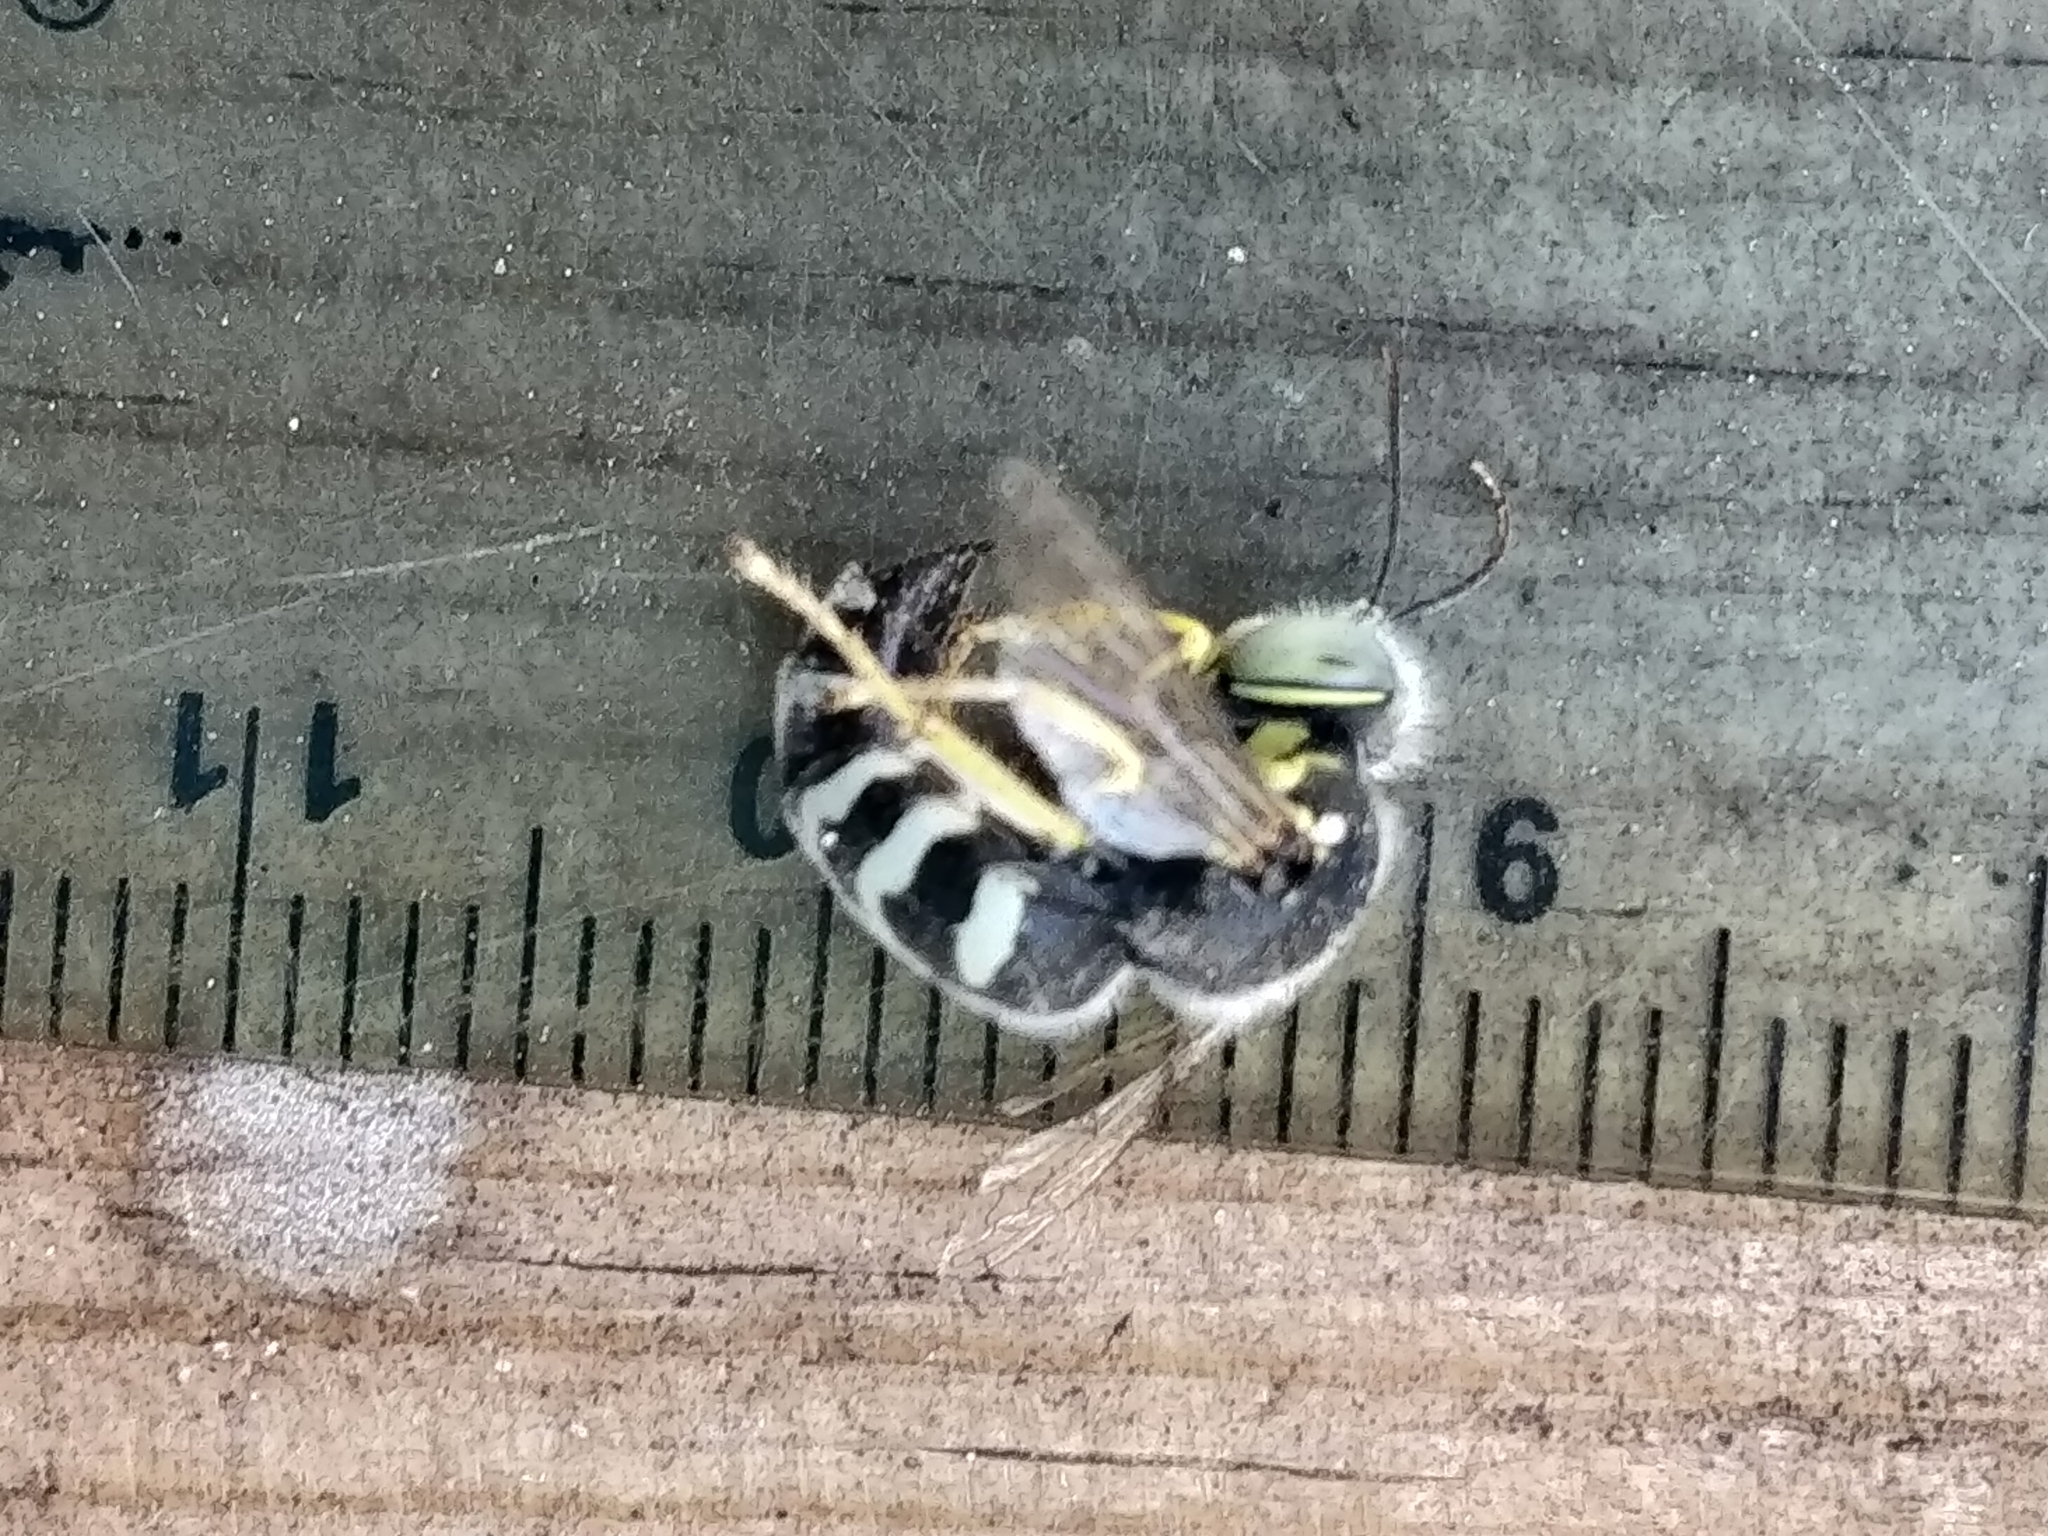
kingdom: Animalia
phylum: Arthropoda
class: Insecta
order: Hymenoptera
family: Crabronidae
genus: Bembix
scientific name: Bembix americana
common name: American sand wasp
